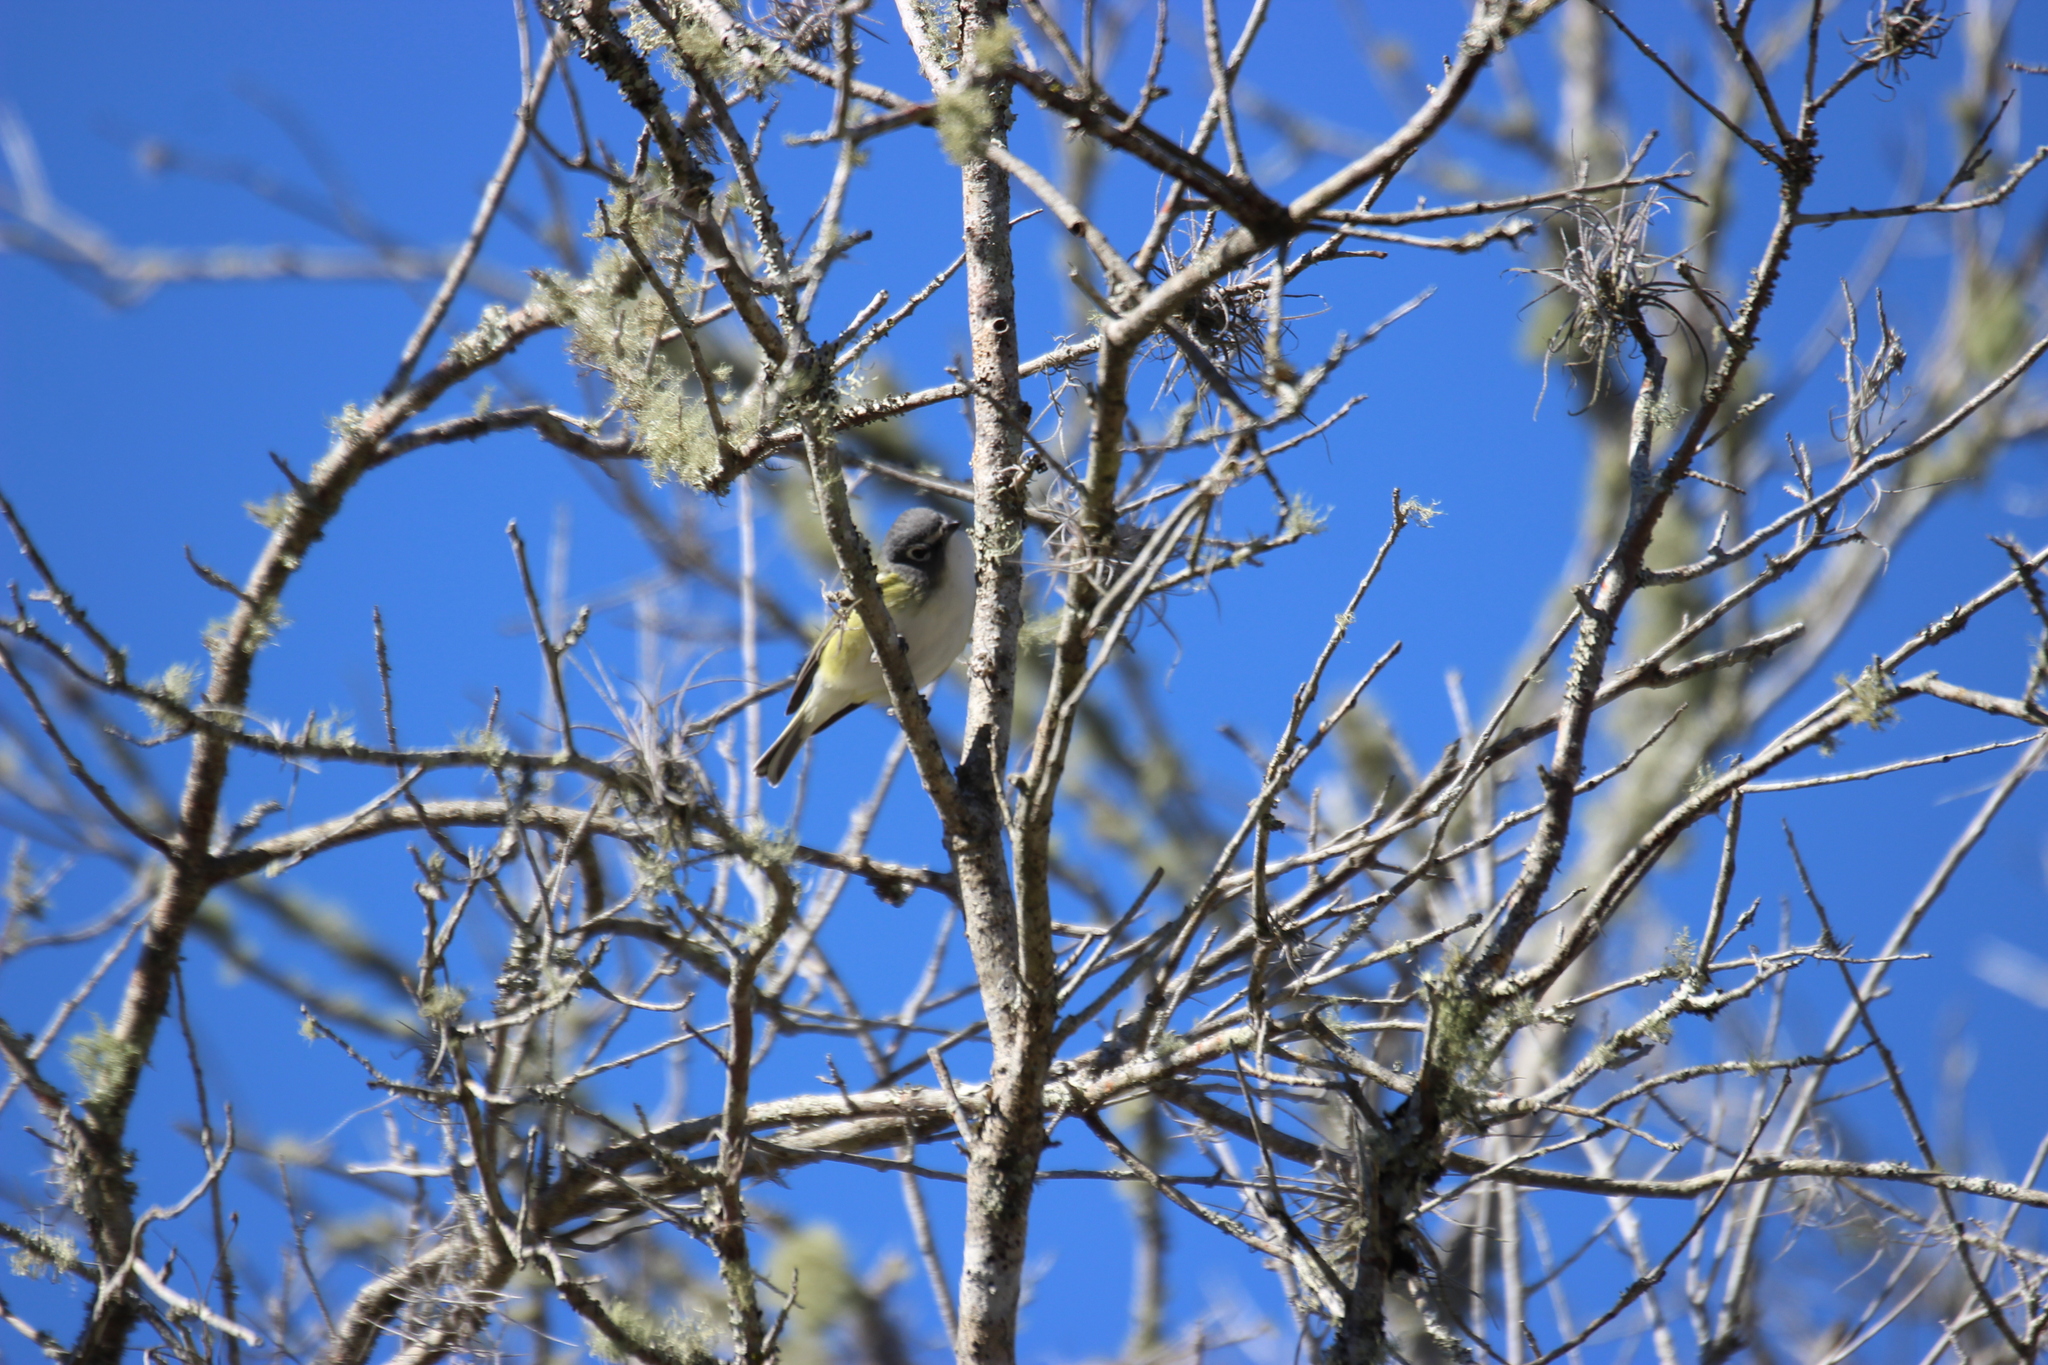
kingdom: Animalia
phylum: Chordata
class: Aves
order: Passeriformes
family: Vireonidae
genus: Vireo
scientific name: Vireo solitarius
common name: Blue-headed vireo
